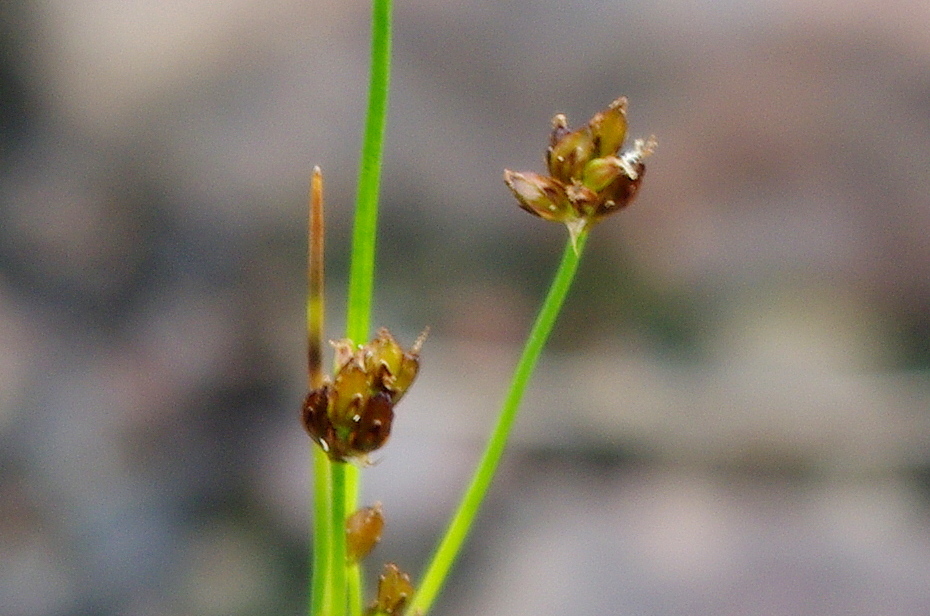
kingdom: Plantae
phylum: Tracheophyta
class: Liliopsida
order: Poales
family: Juncaceae
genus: Juncus
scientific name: Juncus alpinoarticulatus
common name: Alpine rush
